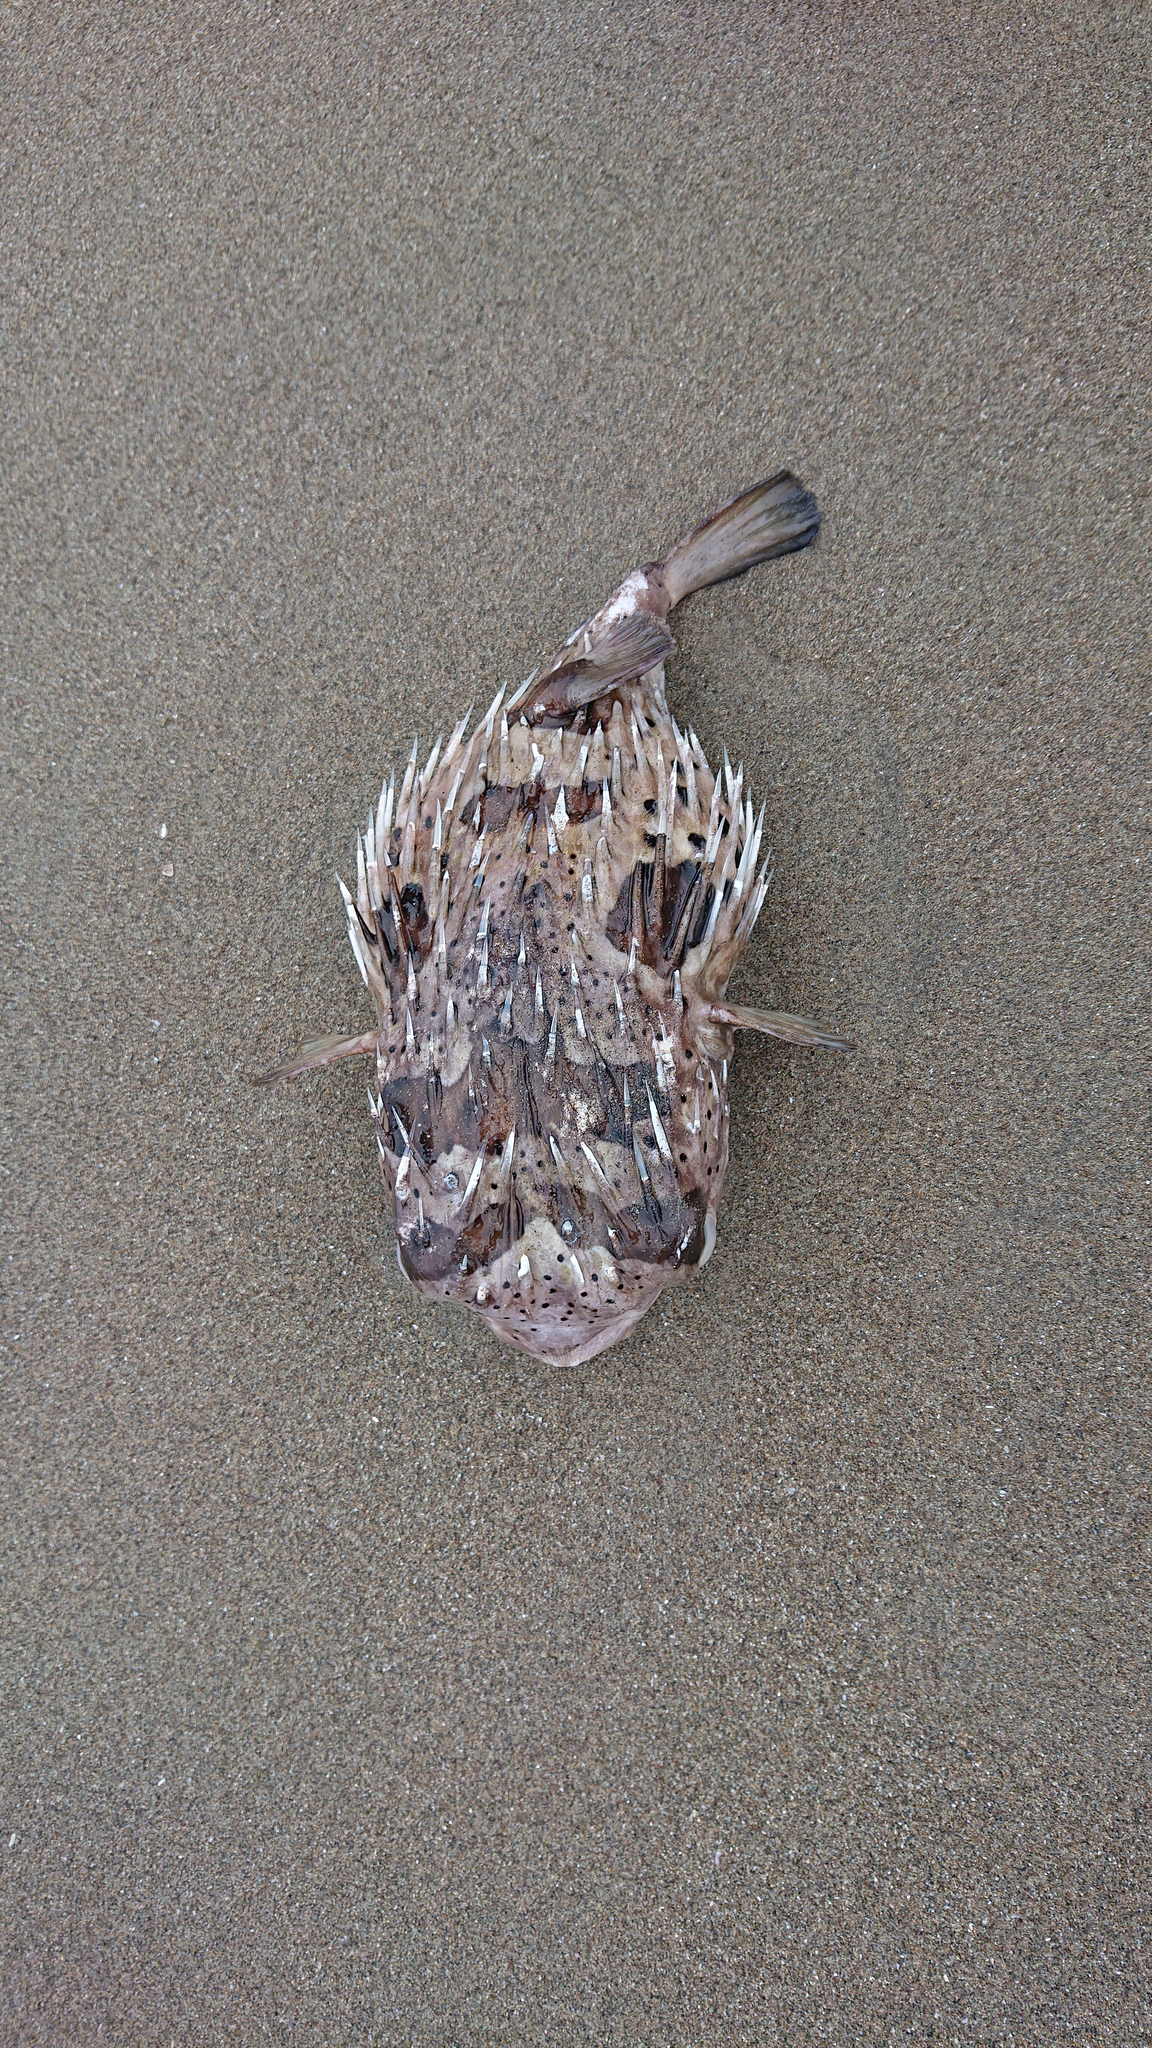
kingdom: Animalia
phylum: Chordata
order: Tetraodontiformes
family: Diodontidae
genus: Diodon
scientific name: Diodon holocanthus
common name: Balloonfish
